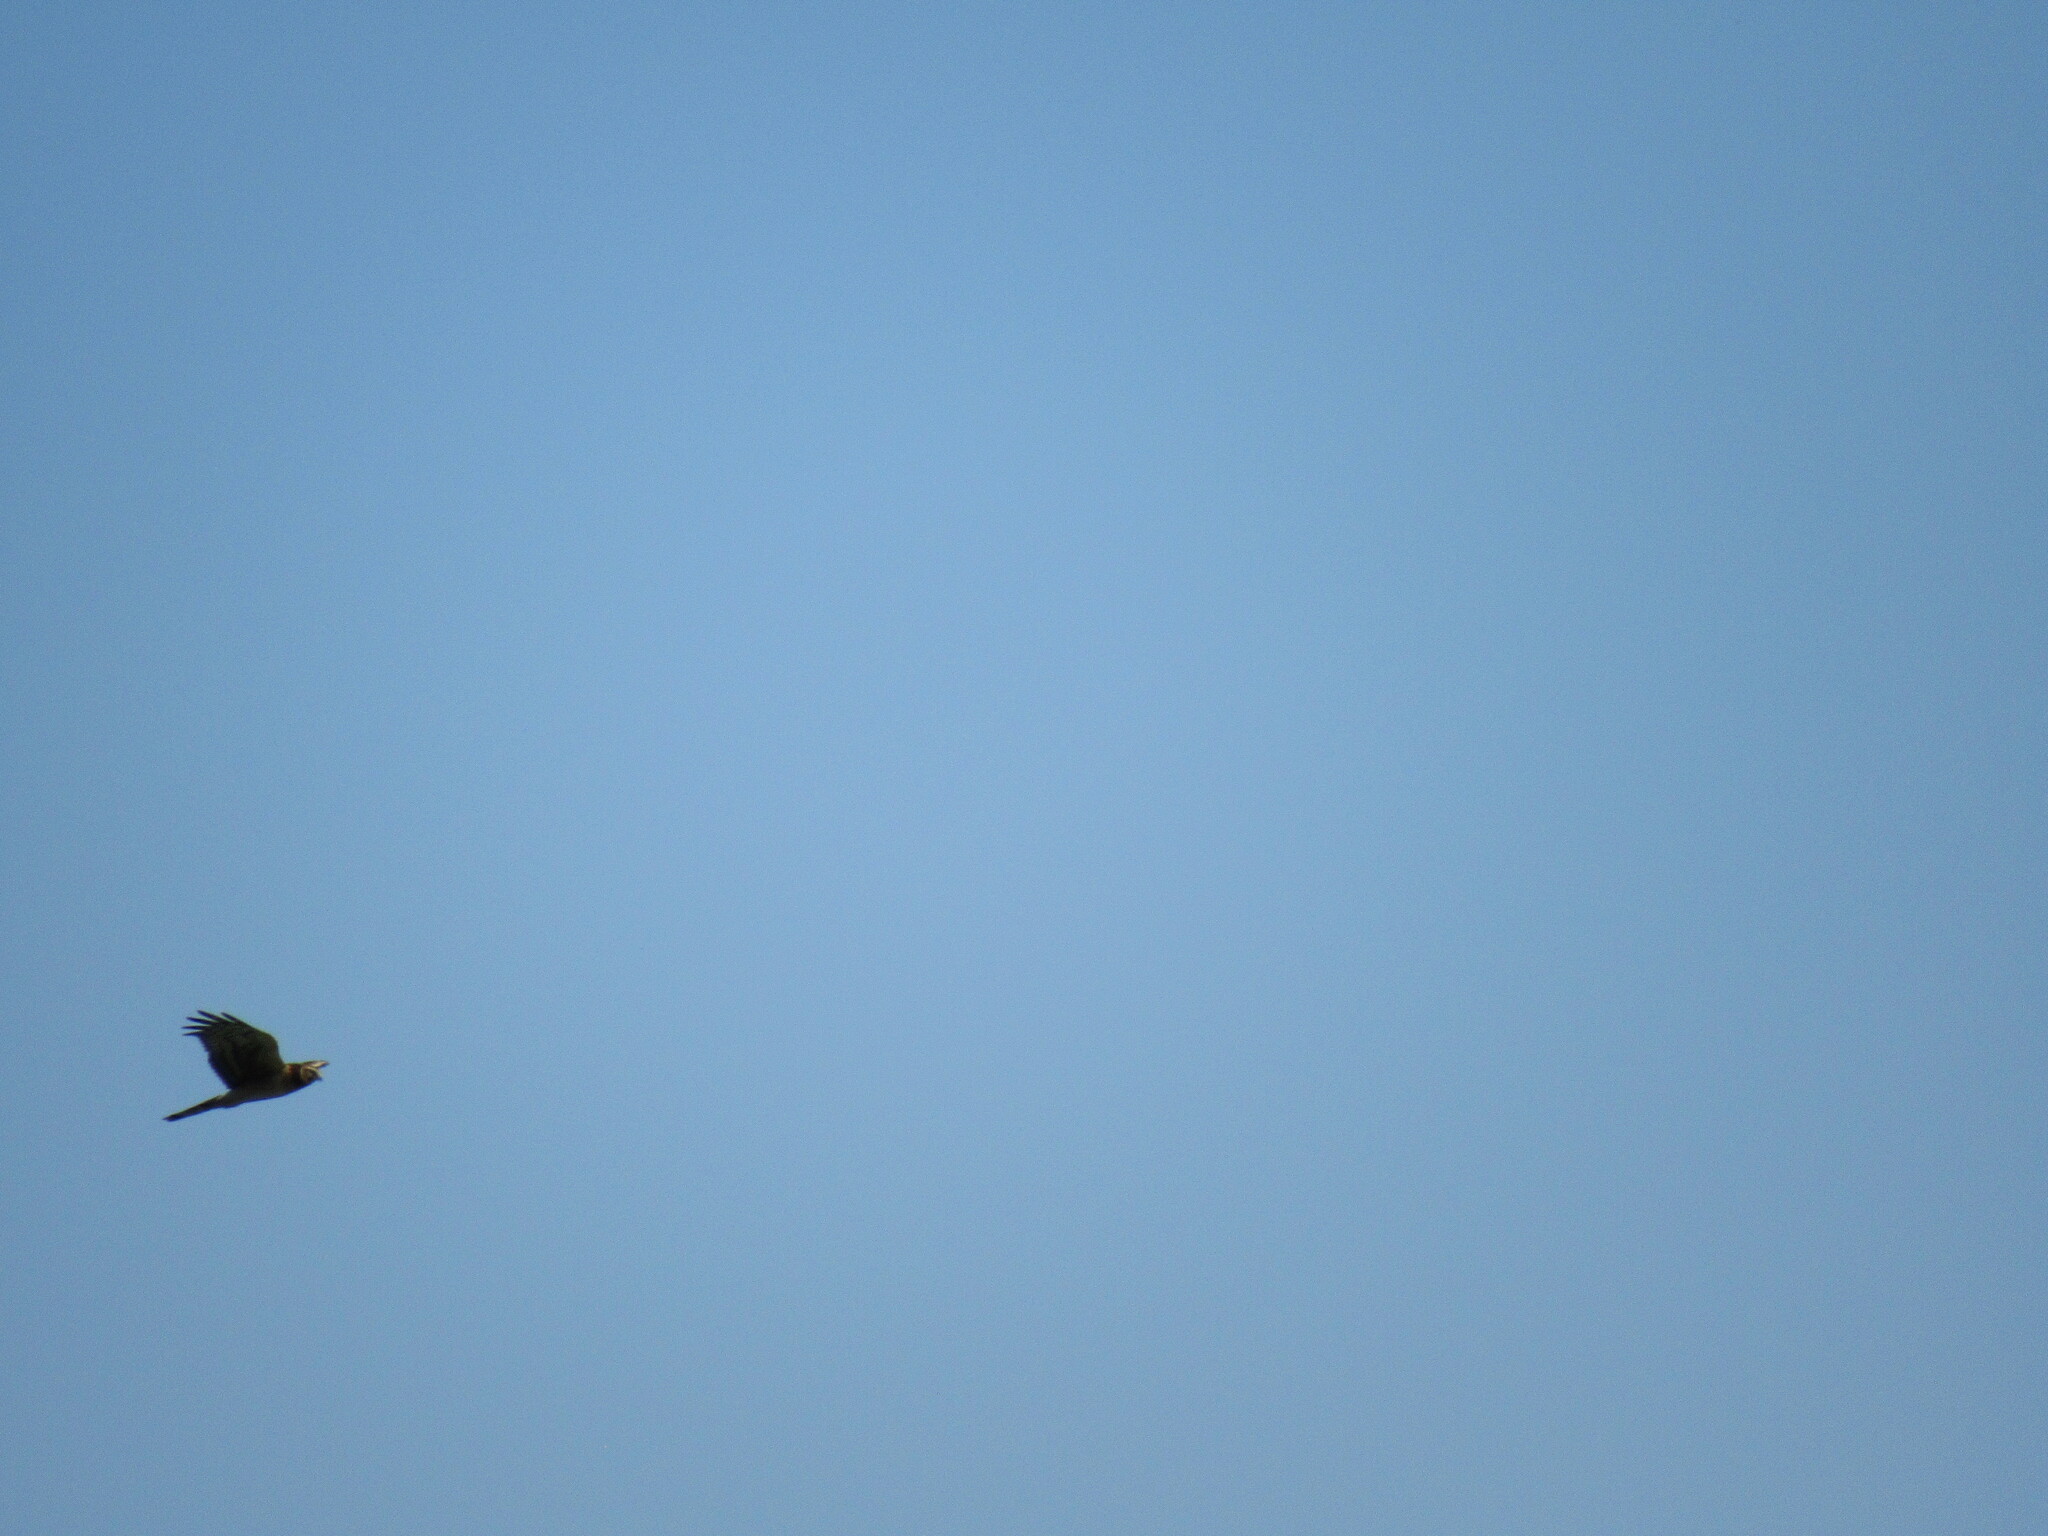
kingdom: Animalia
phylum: Chordata
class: Aves
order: Accipitriformes
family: Accipitridae
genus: Circus
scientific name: Circus cyaneus
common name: Hen harrier
